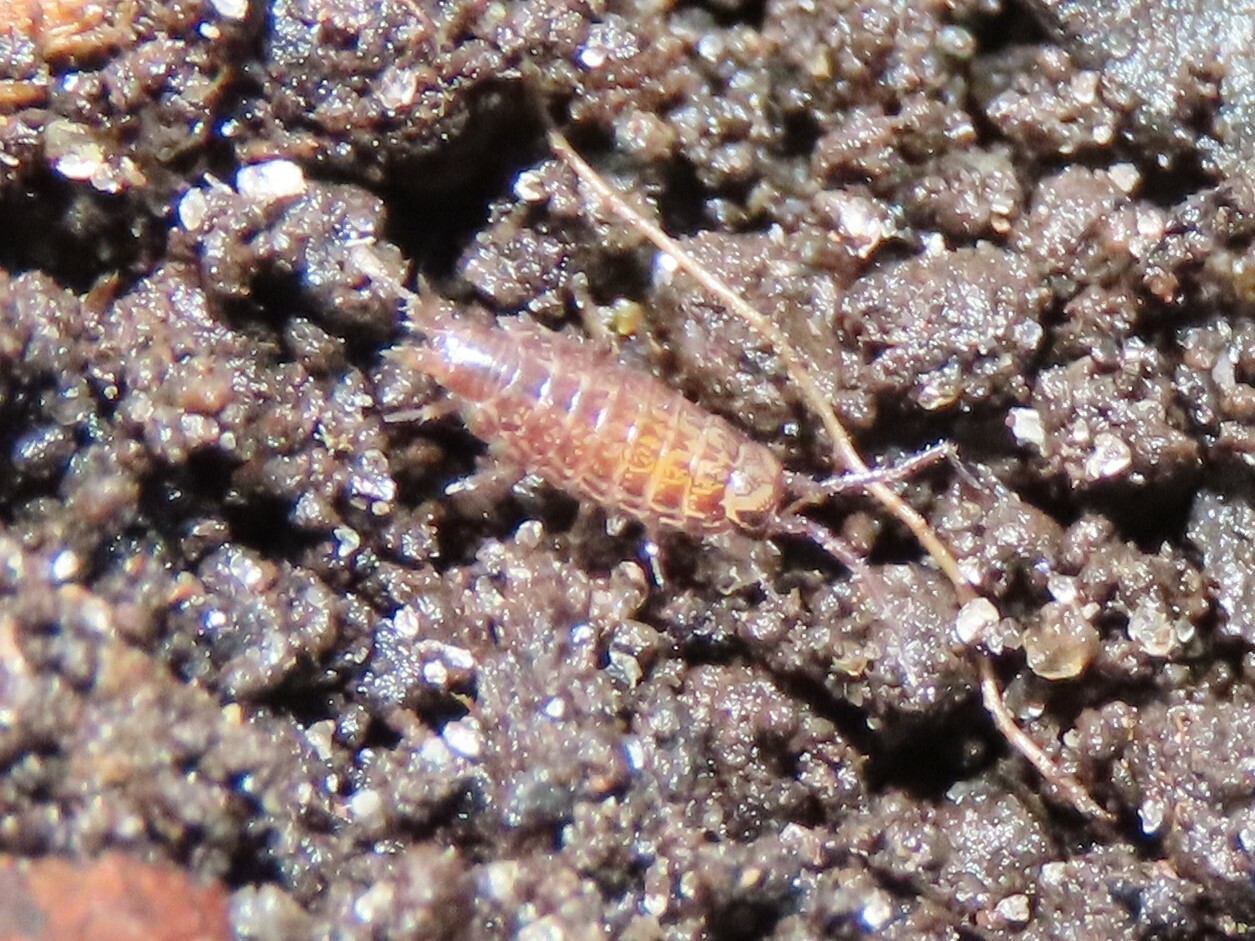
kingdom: Animalia
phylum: Arthropoda
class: Malacostraca
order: Isopoda
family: Philosciidae
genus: Atlantoscia
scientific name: Atlantoscia floridana
